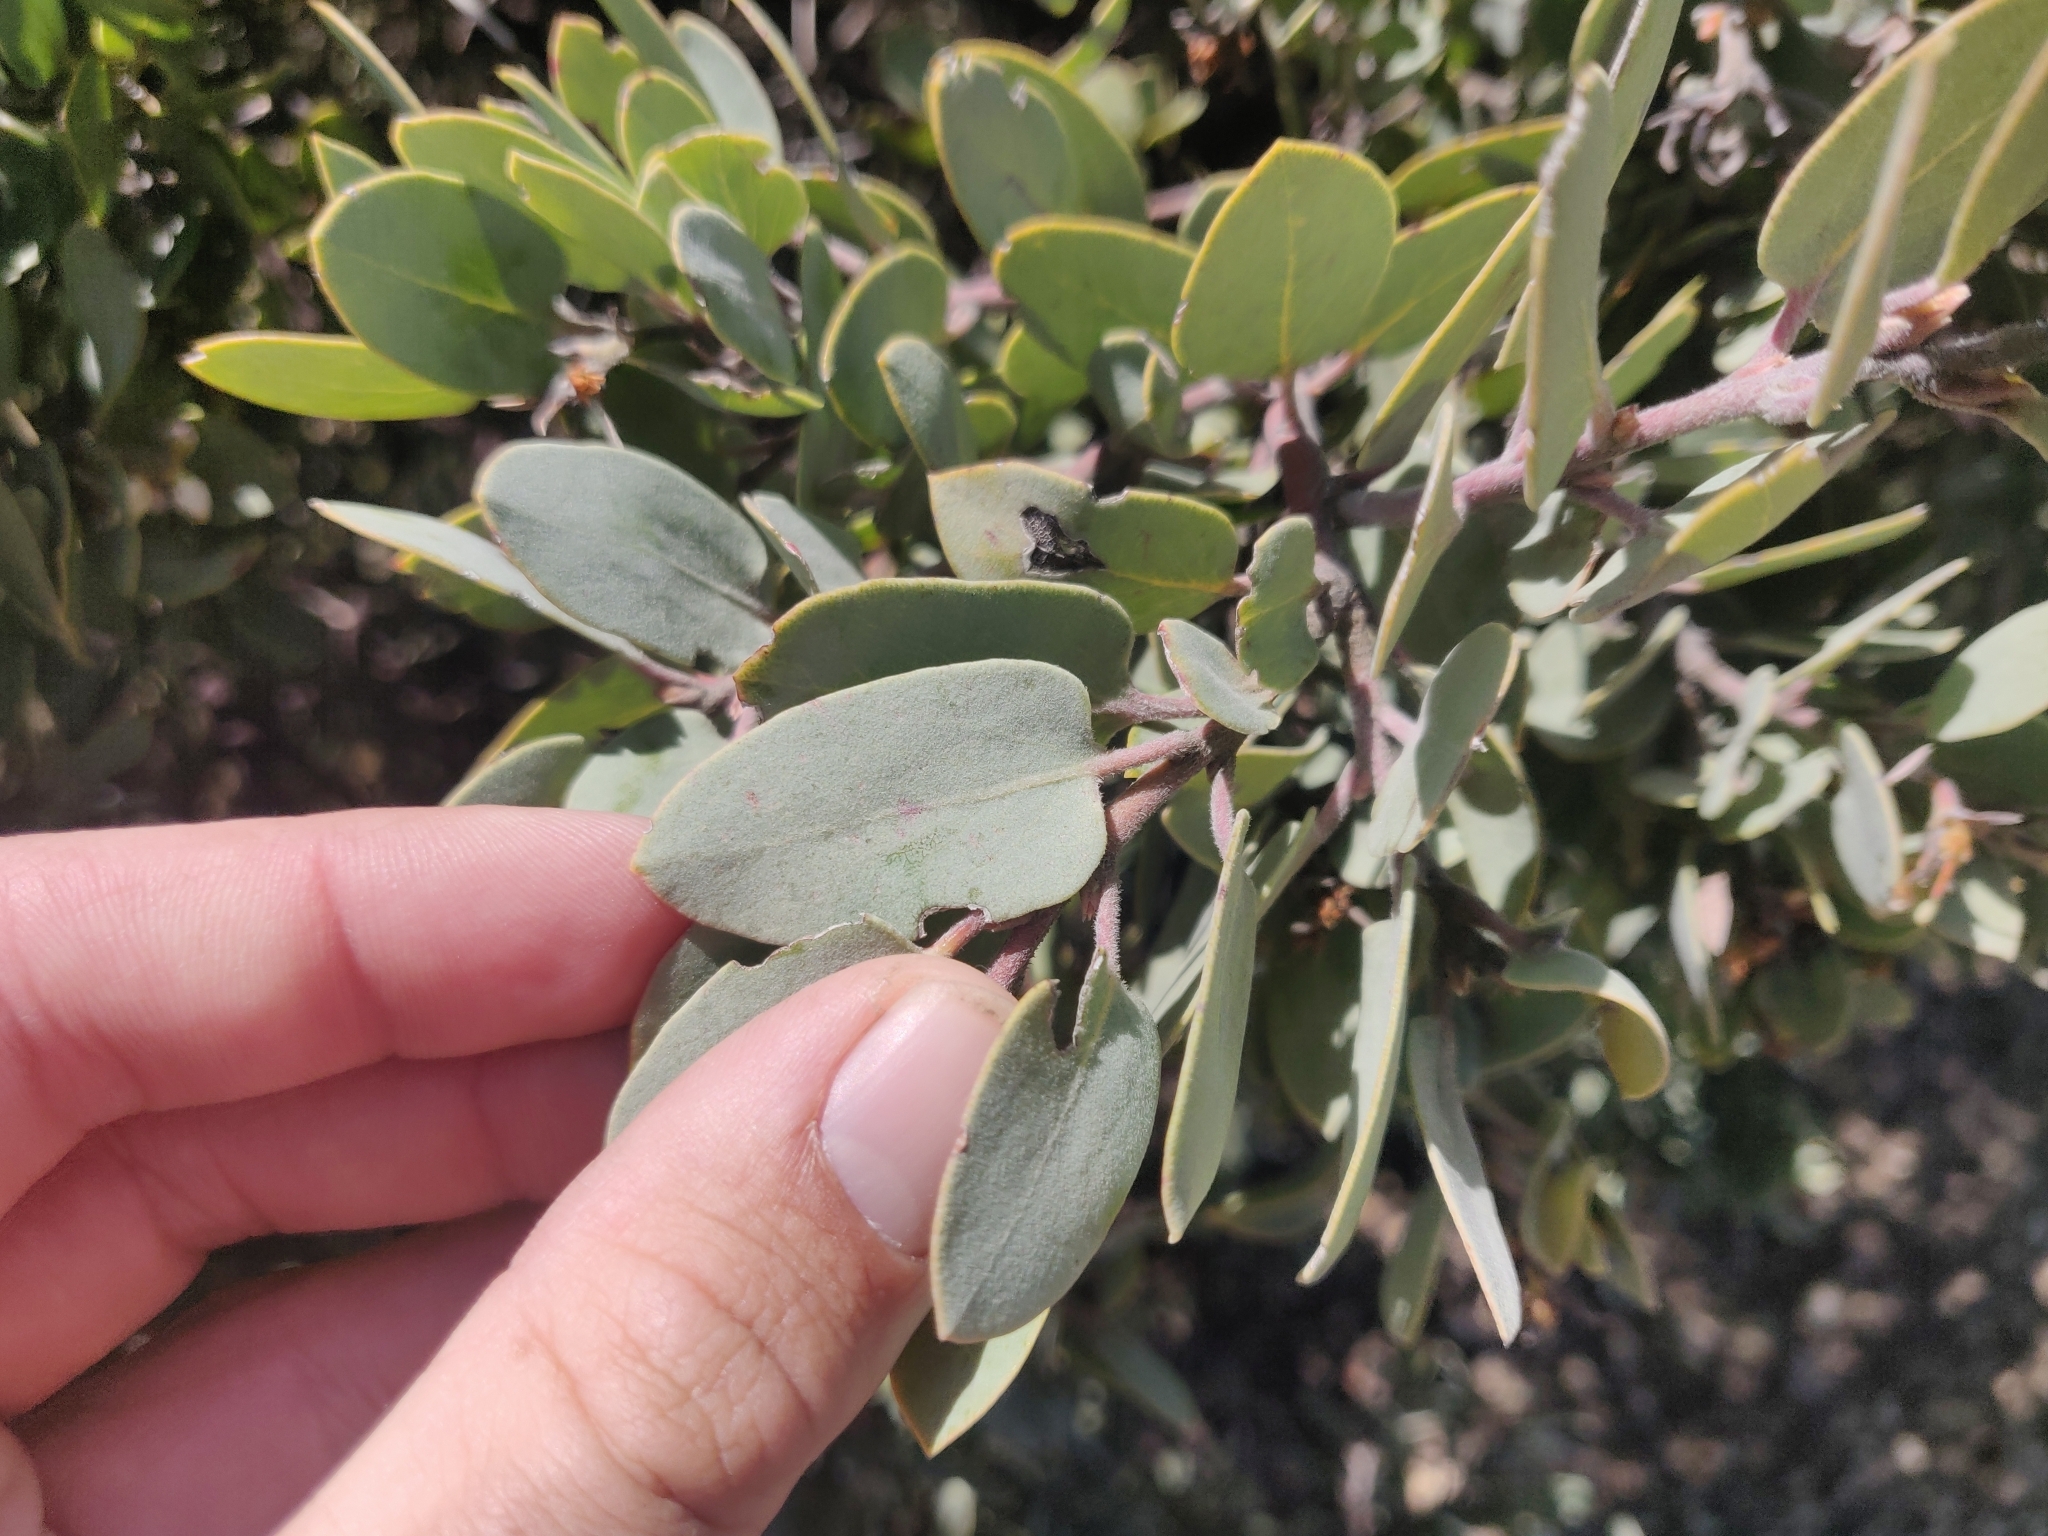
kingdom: Plantae
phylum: Tracheophyta
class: Magnoliopsida
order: Ericales
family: Ericaceae
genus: Arctostaphylos
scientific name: Arctostaphylos obispoensis
